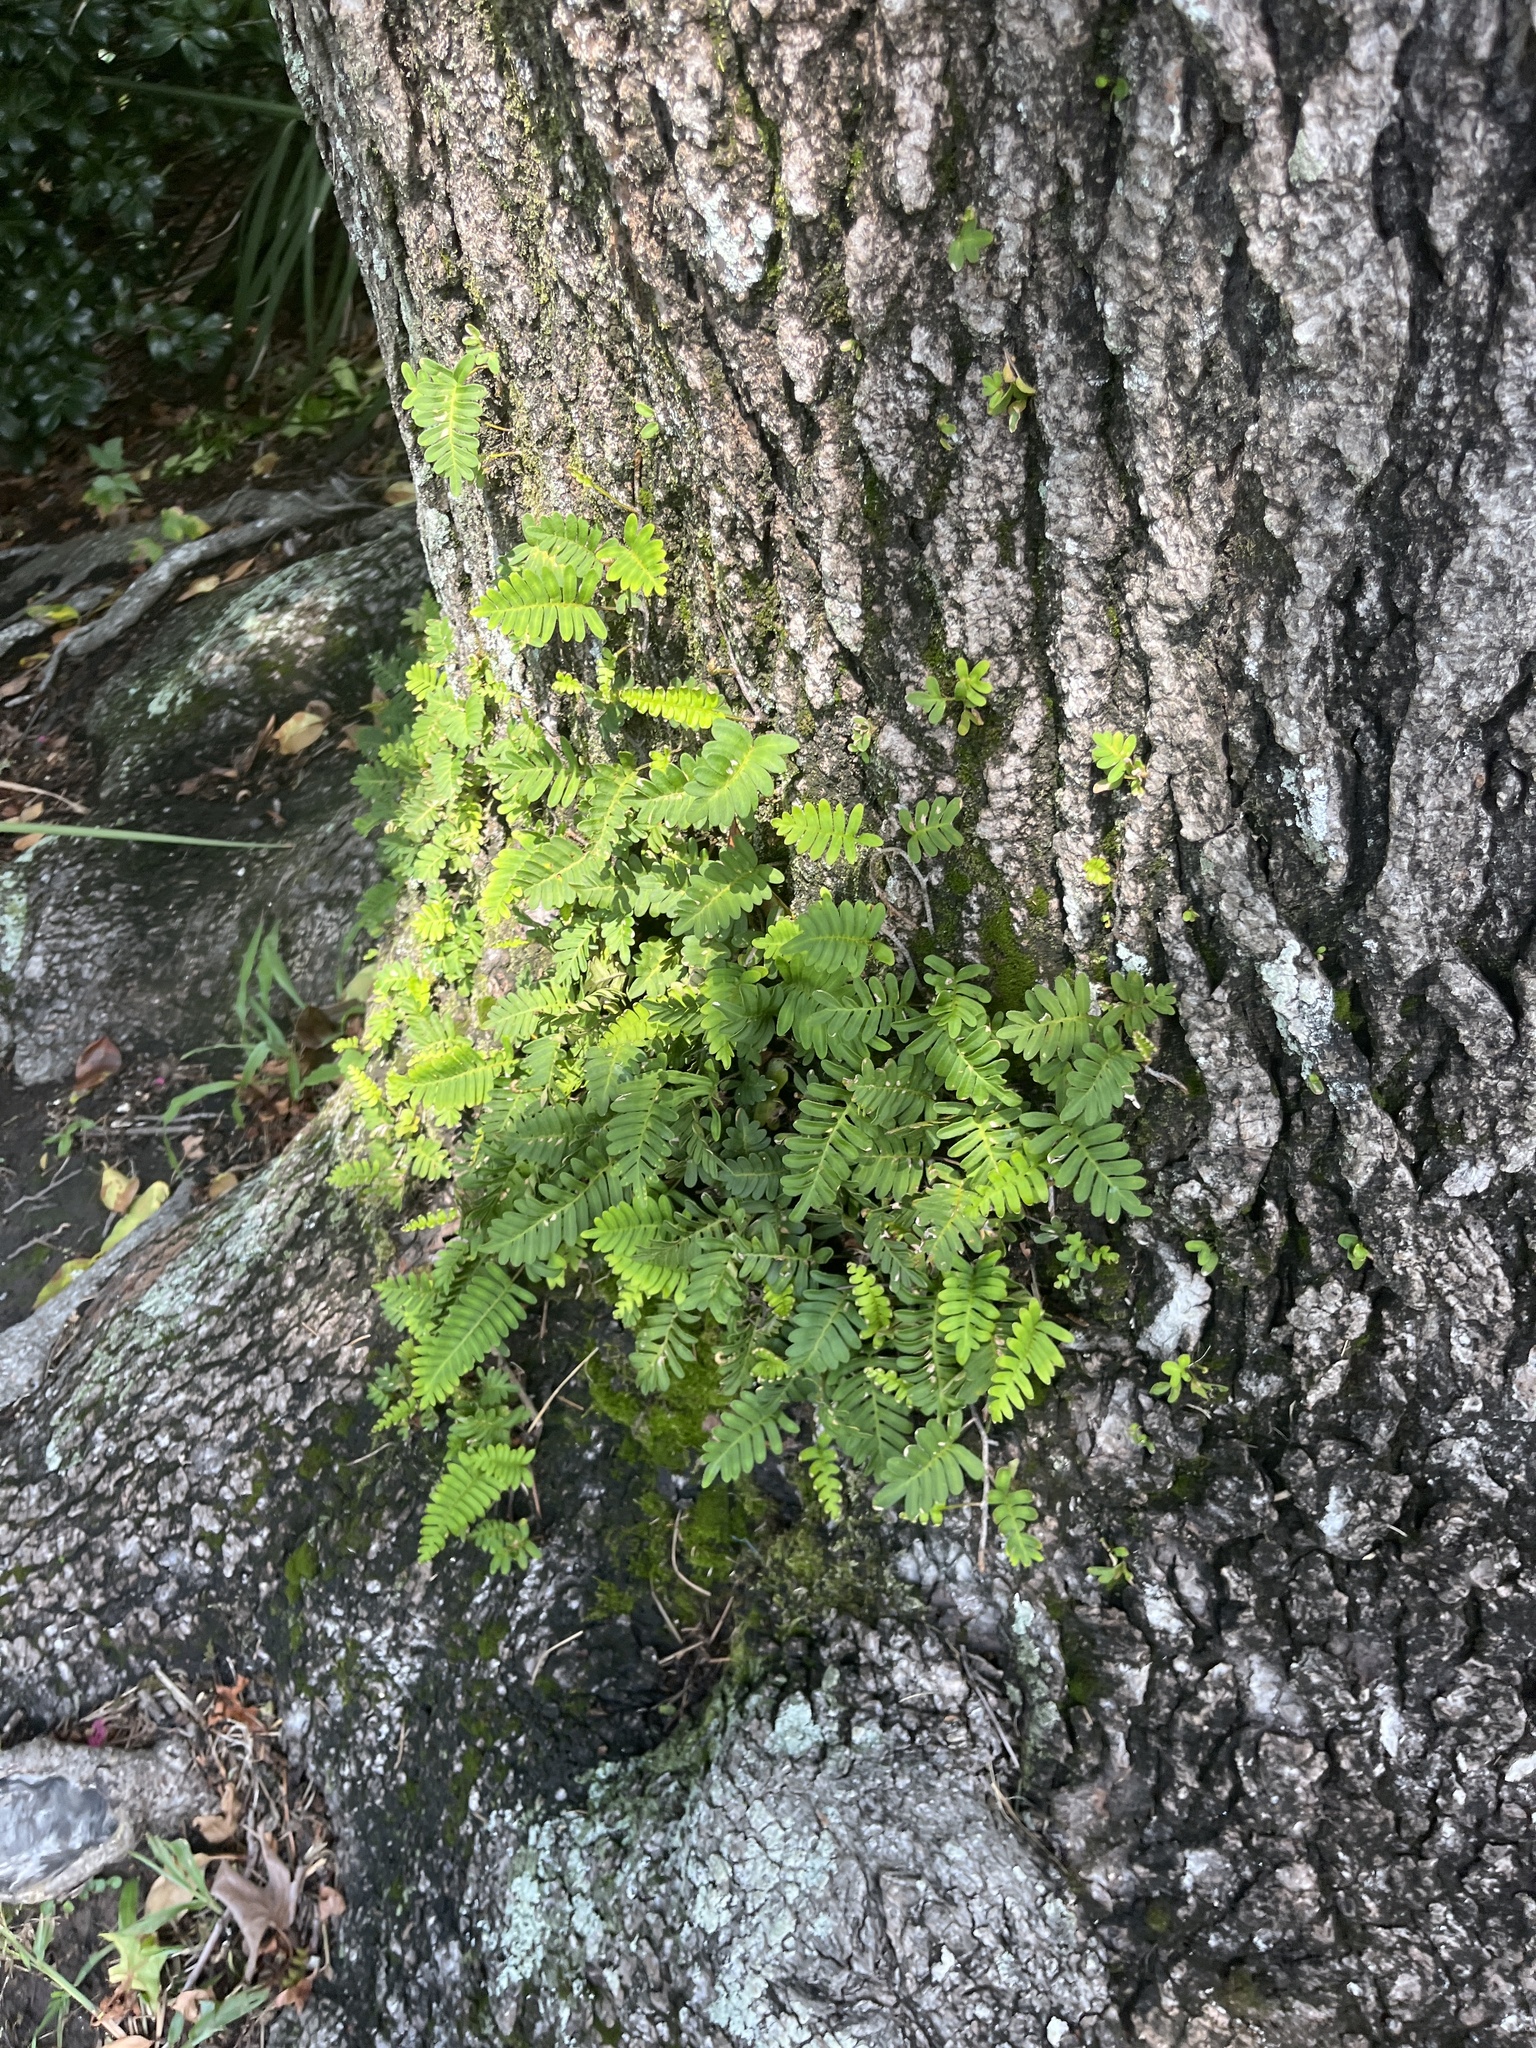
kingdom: Plantae
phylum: Tracheophyta
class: Polypodiopsida
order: Polypodiales
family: Polypodiaceae
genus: Pleopeltis
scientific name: Pleopeltis michauxiana
